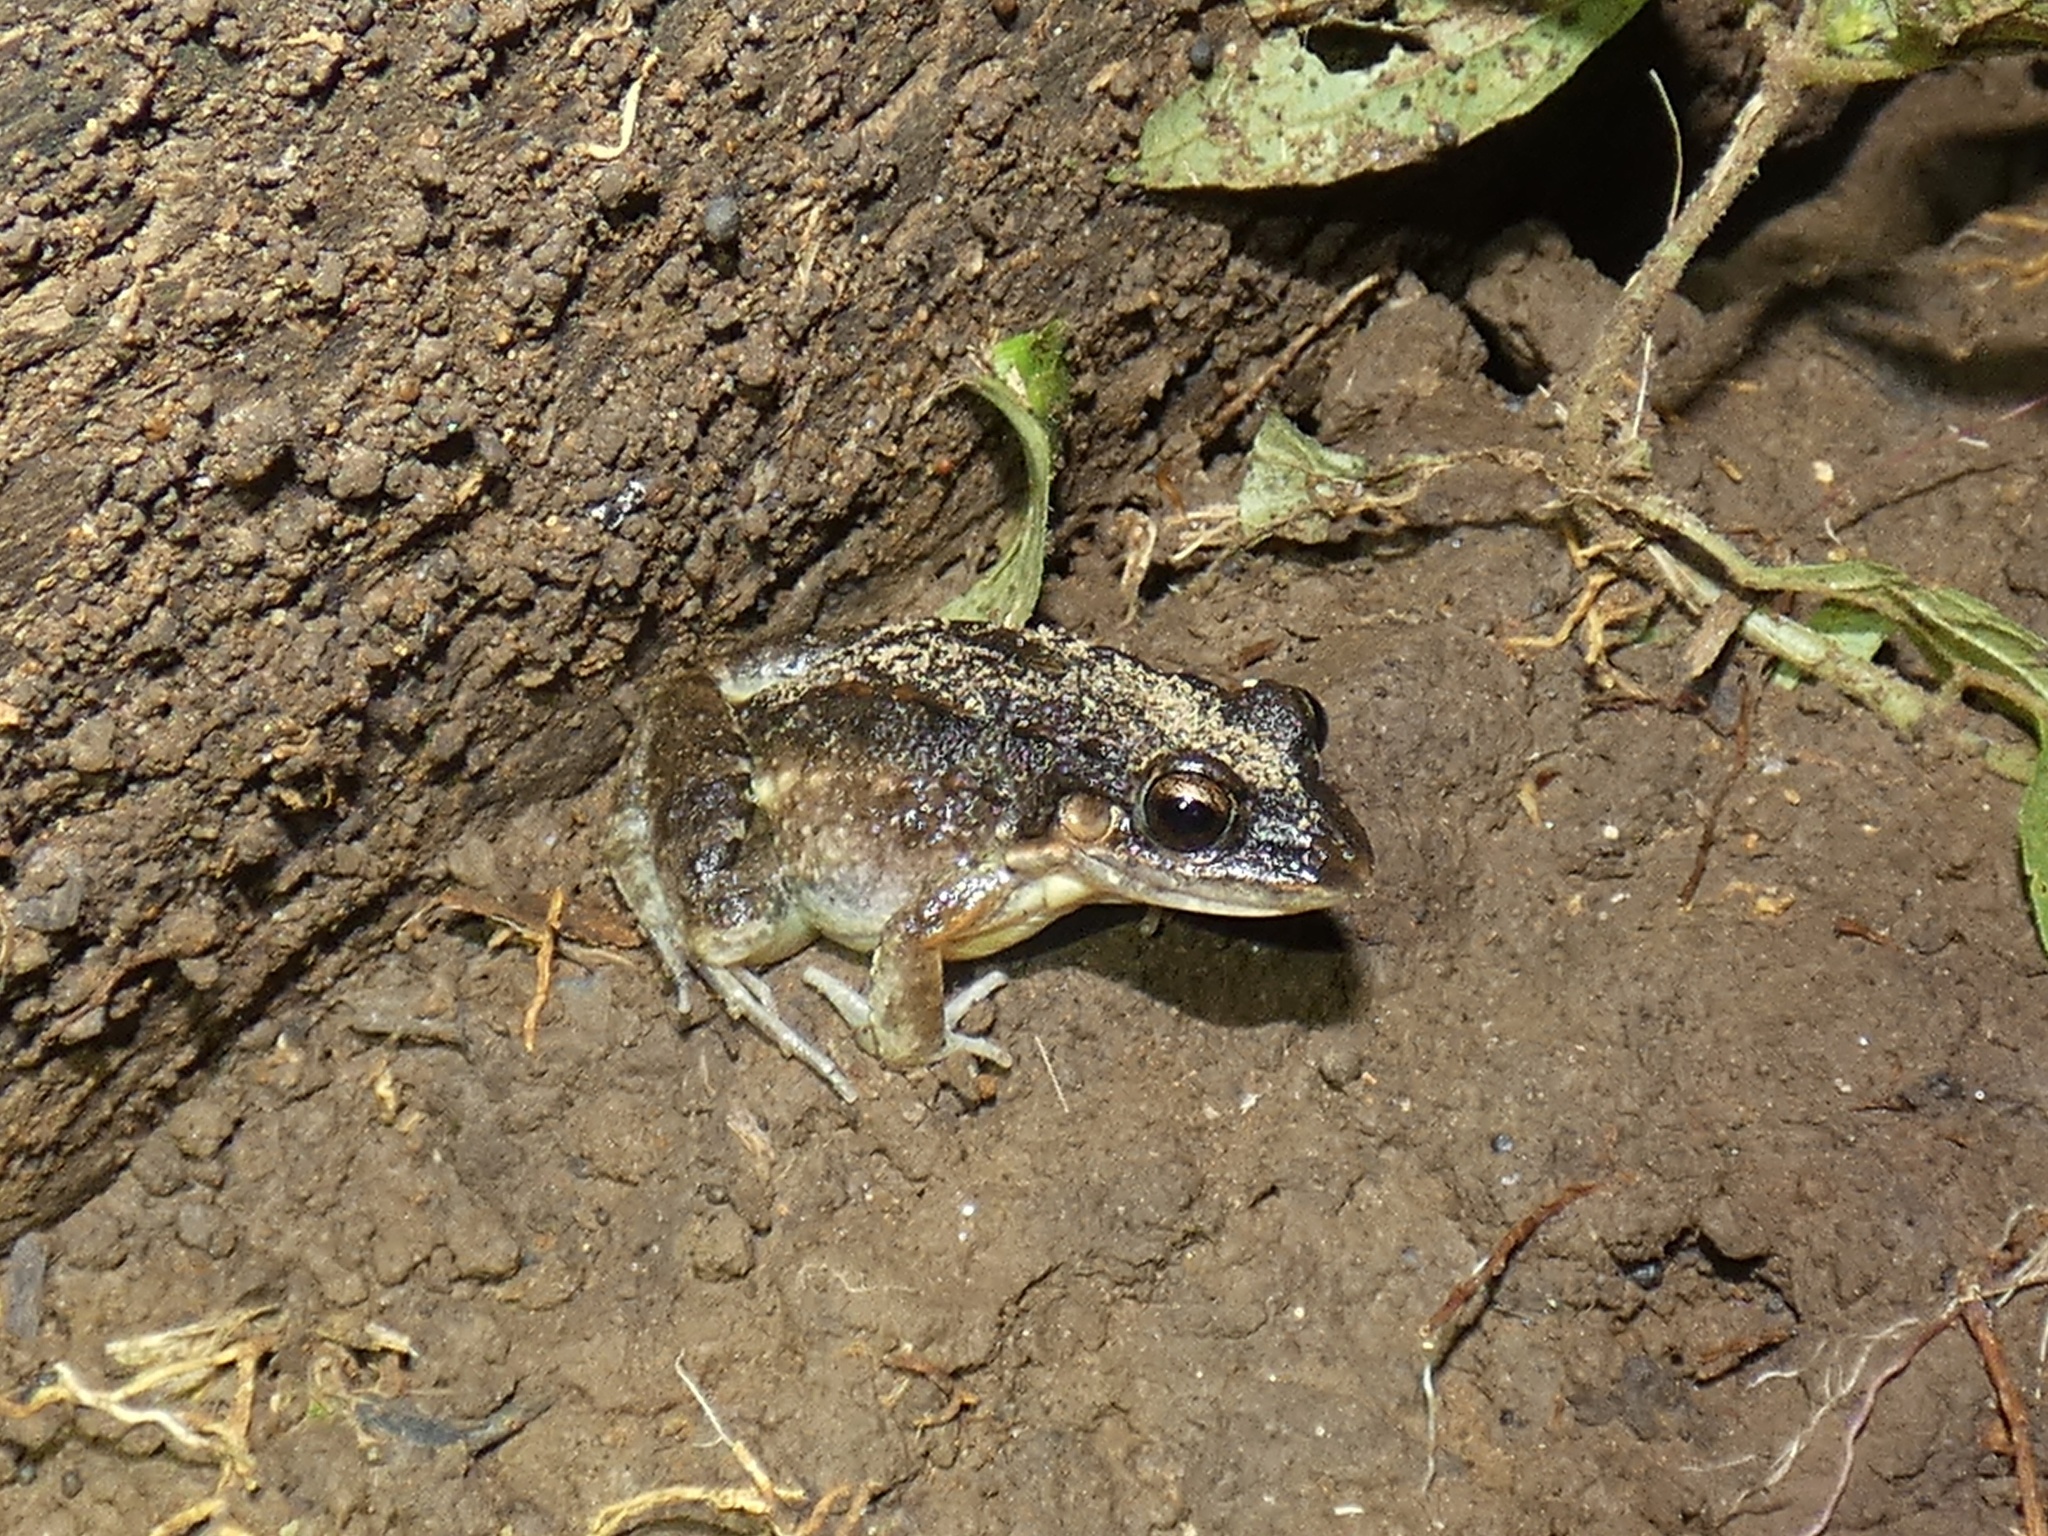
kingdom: Animalia
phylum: Chordata
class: Amphibia
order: Anura
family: Leptodactylidae
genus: Leptodactylus
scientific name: Leptodactylus poecilochilus
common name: Turbo white-lipped frog
